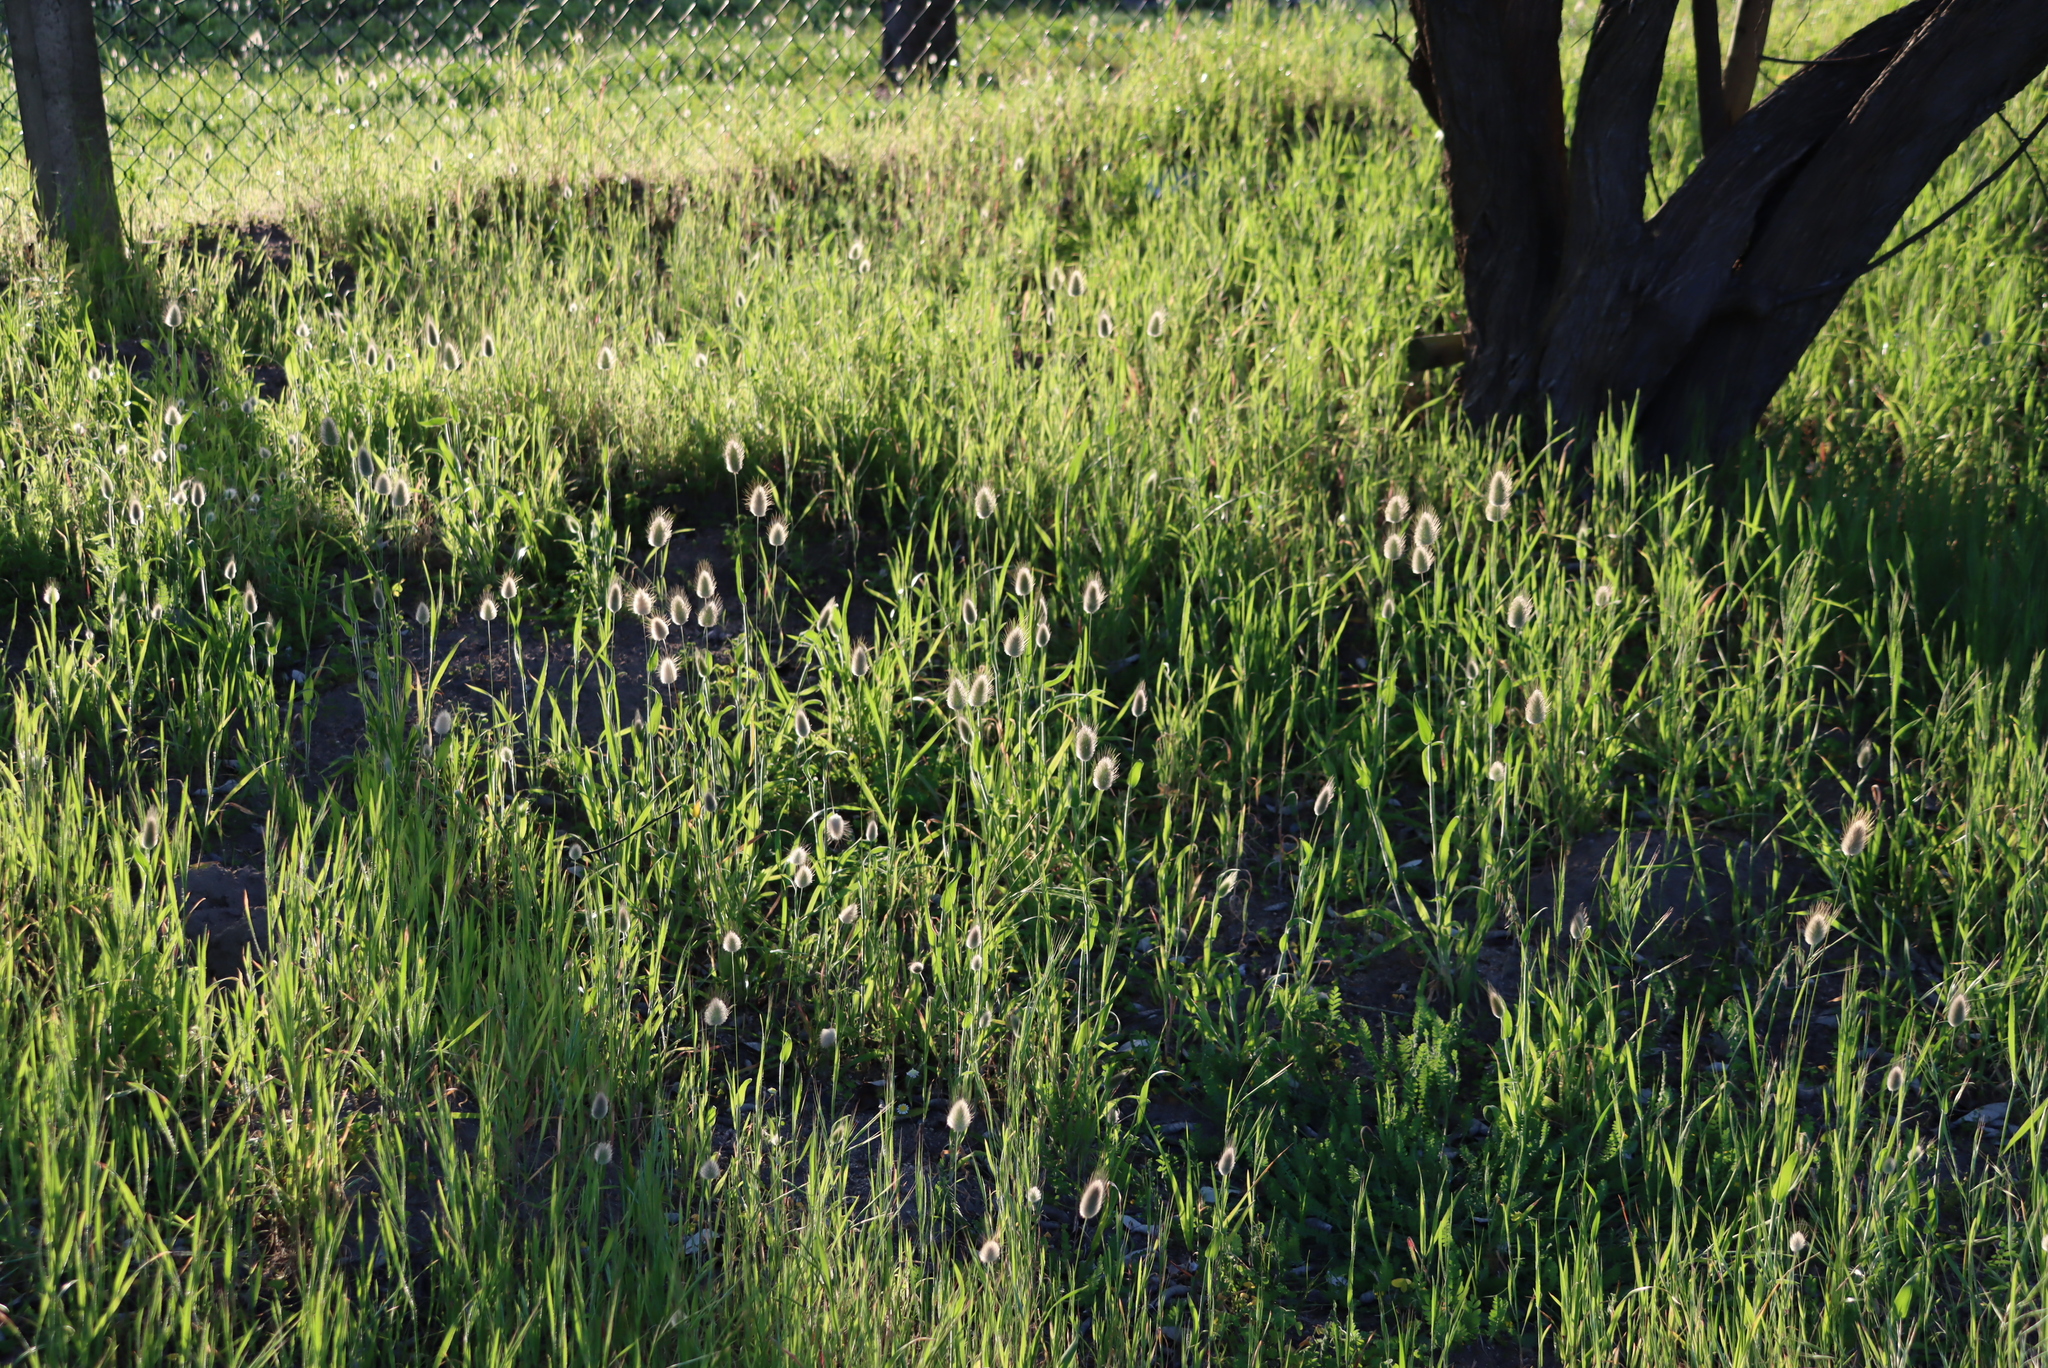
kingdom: Plantae
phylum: Tracheophyta
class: Liliopsida
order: Poales
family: Poaceae
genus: Lagurus
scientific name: Lagurus ovatus
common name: Hare's-tail
